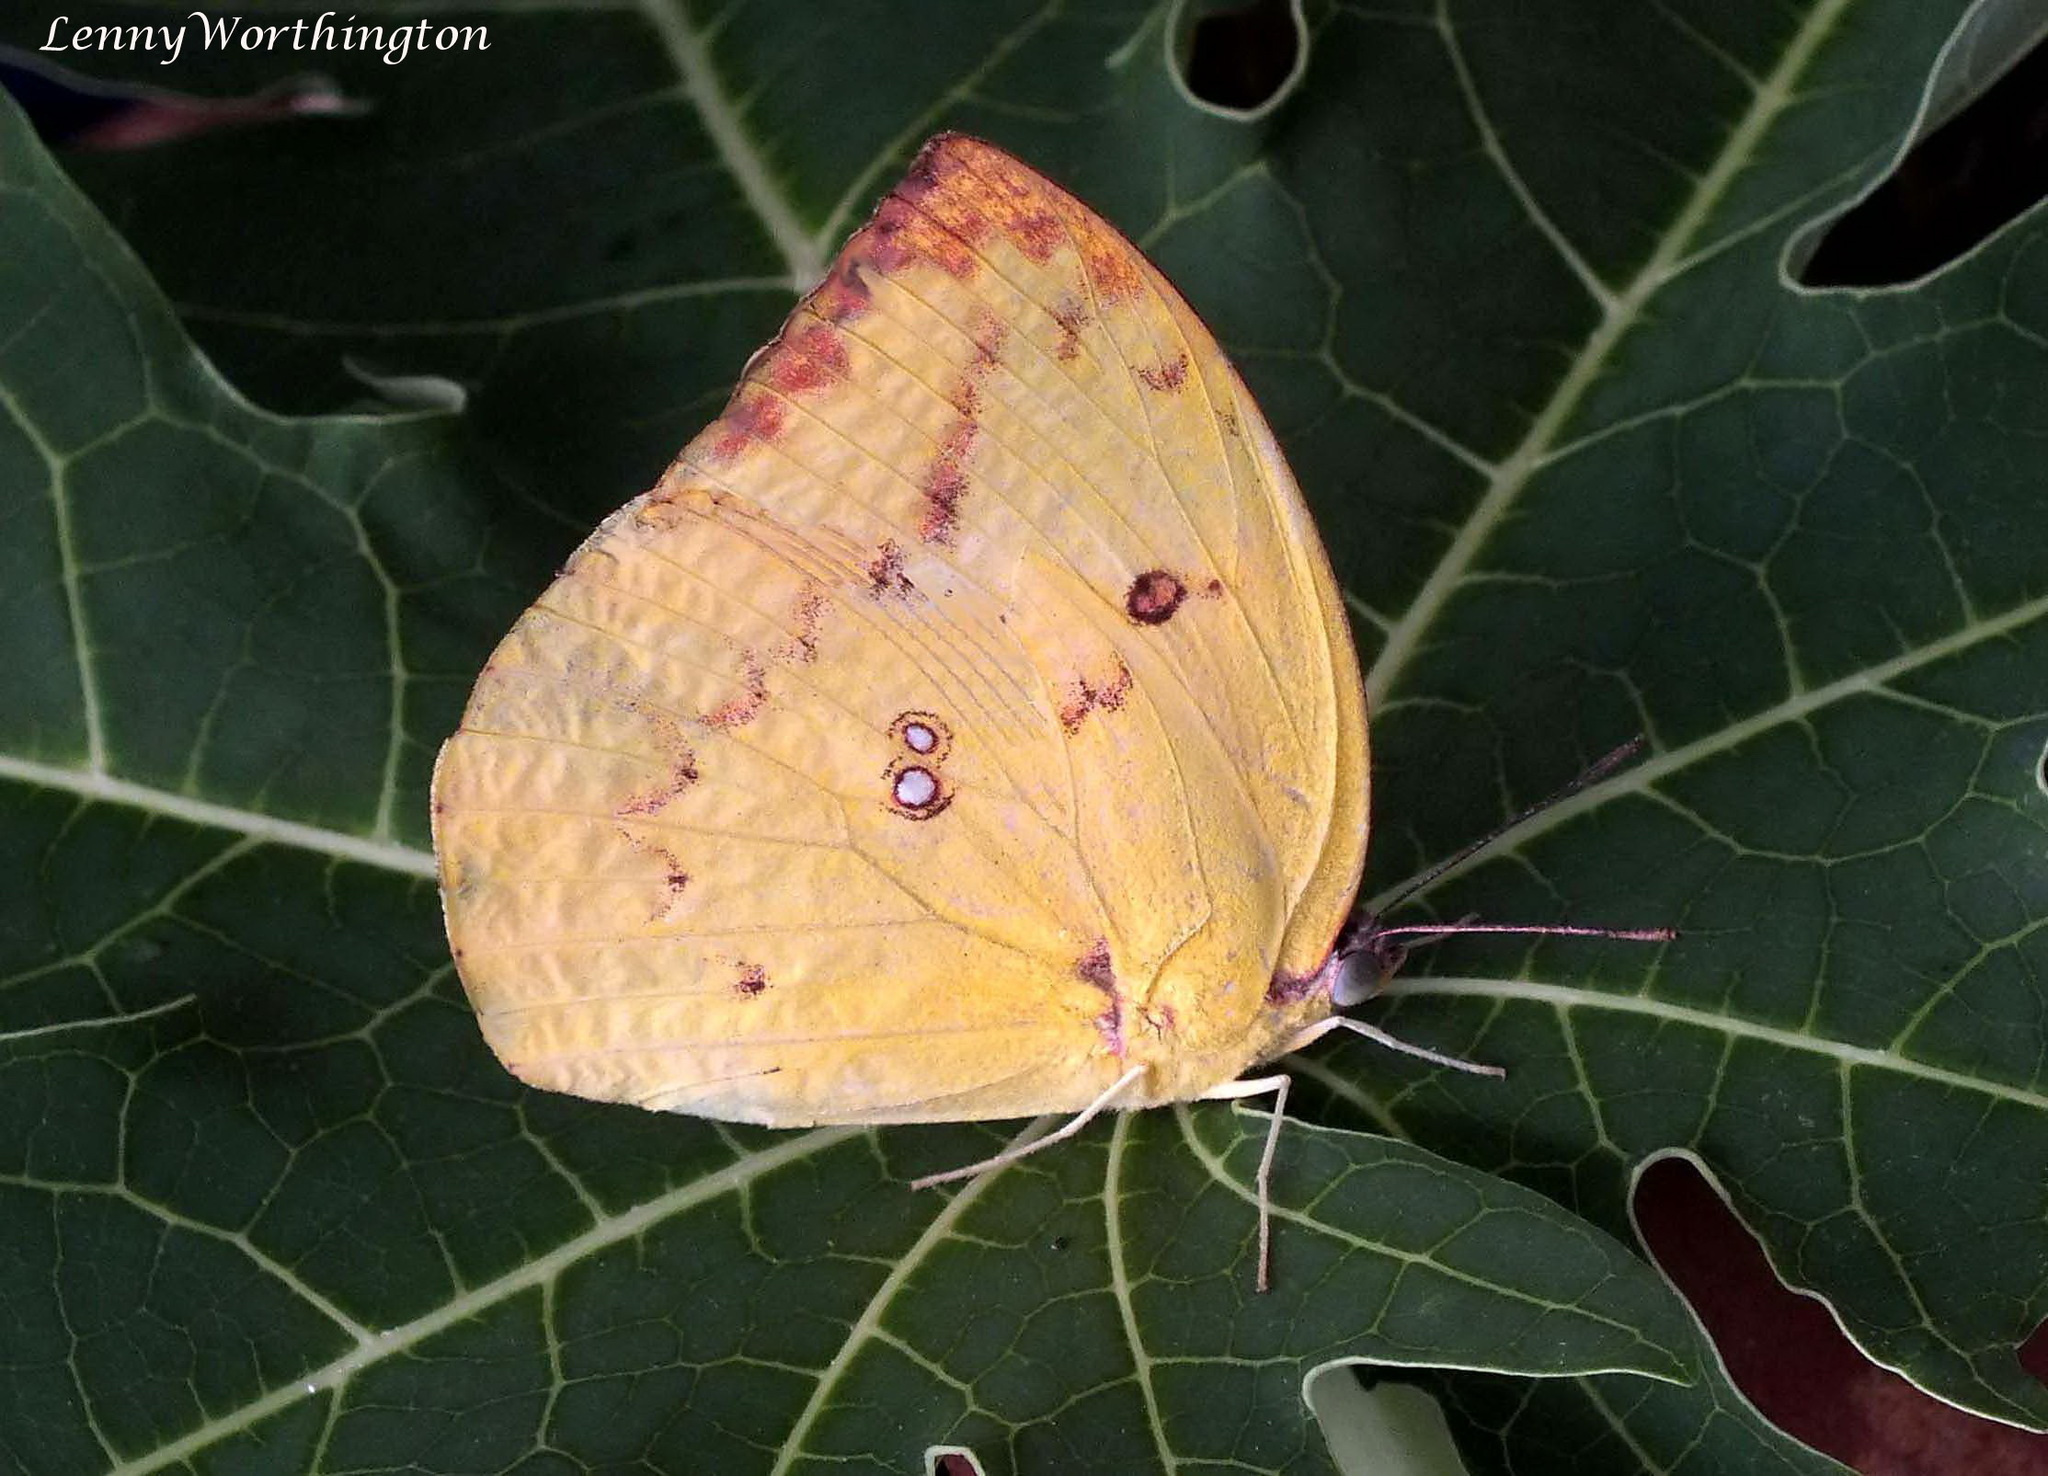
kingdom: Animalia
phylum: Arthropoda
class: Insecta
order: Lepidoptera
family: Pieridae
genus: Catopsilia
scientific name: Catopsilia pomona
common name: Common emigrant
